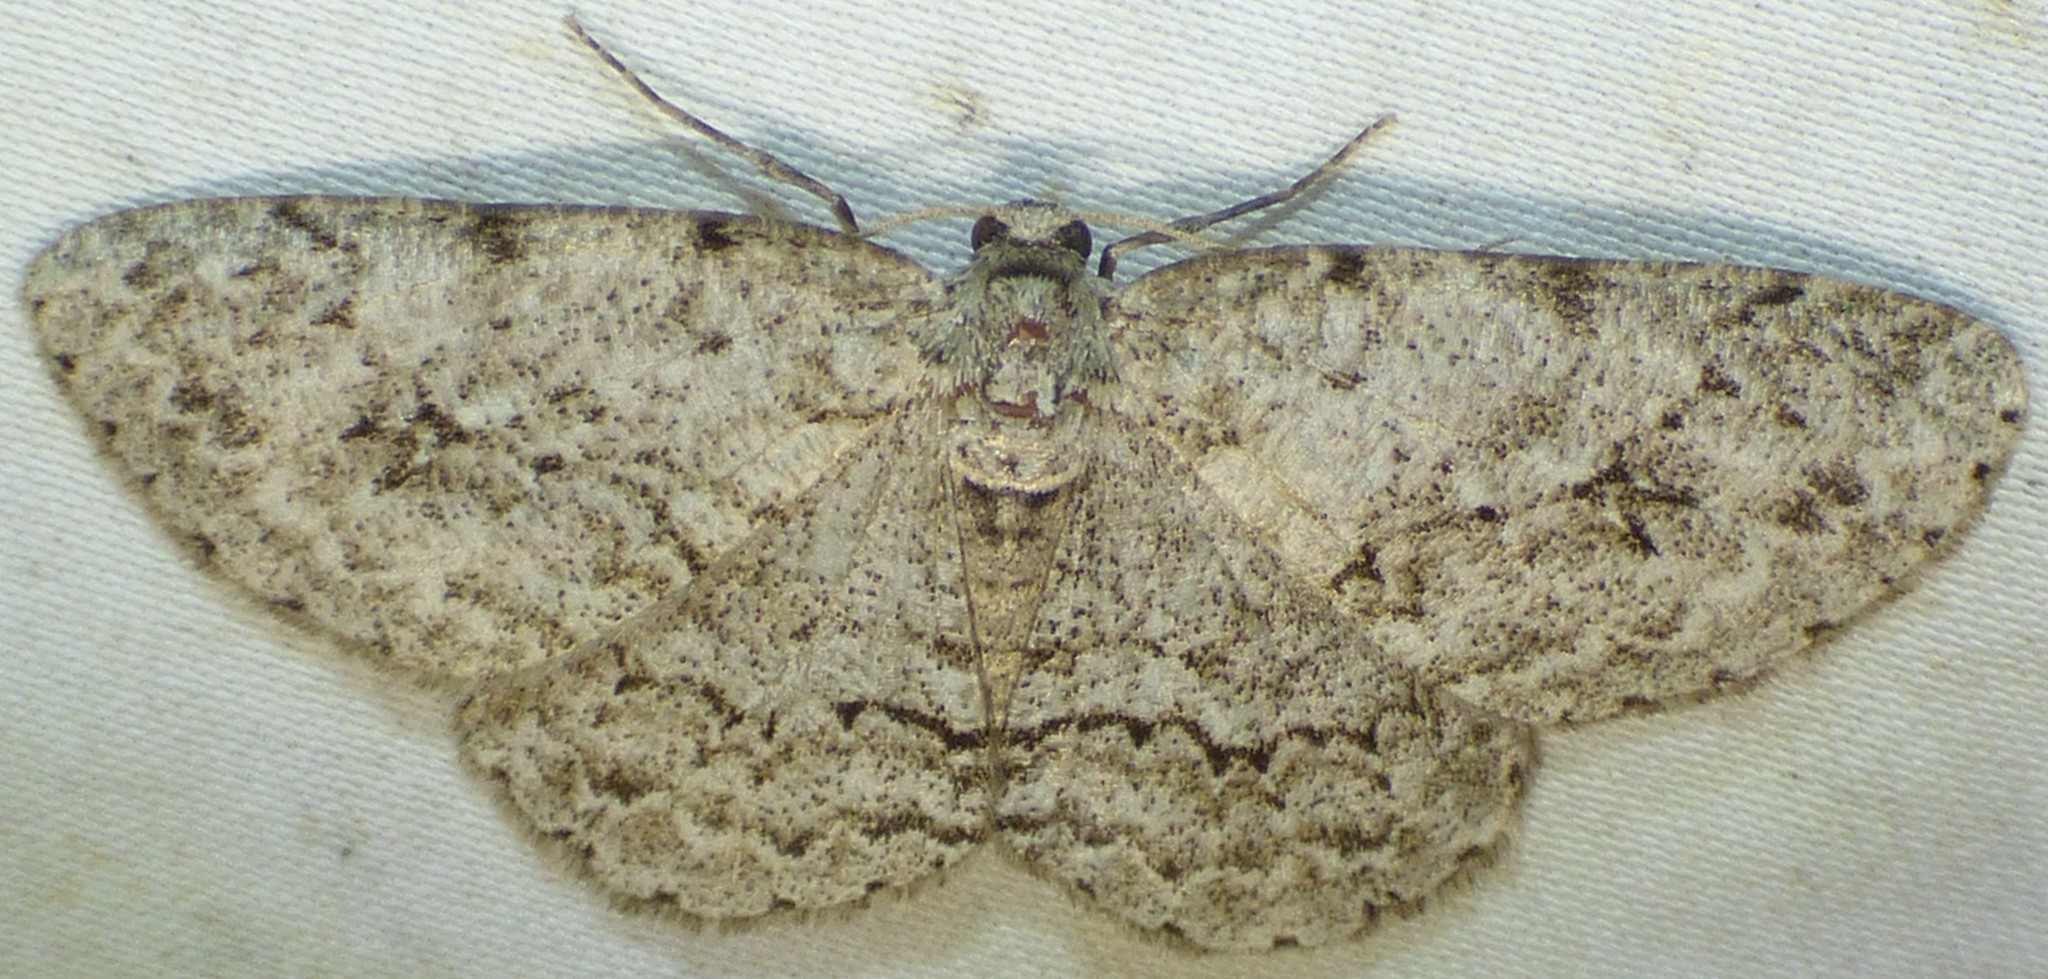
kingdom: Animalia
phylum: Arthropoda
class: Insecta
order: Lepidoptera
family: Geometridae
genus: Ectropis
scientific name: Ectropis crepuscularia
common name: Engrailed
